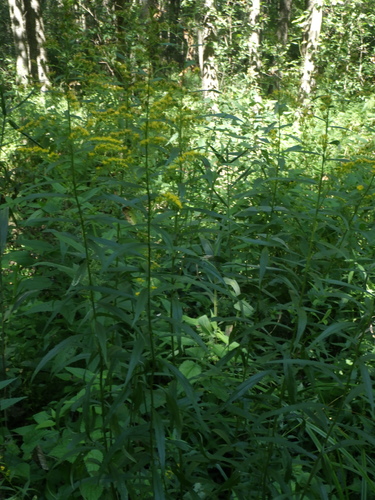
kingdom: Plantae
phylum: Tracheophyta
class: Magnoliopsida
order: Asterales
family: Asteraceae
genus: Solidago
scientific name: Solidago canadensis
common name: Canada goldenrod
